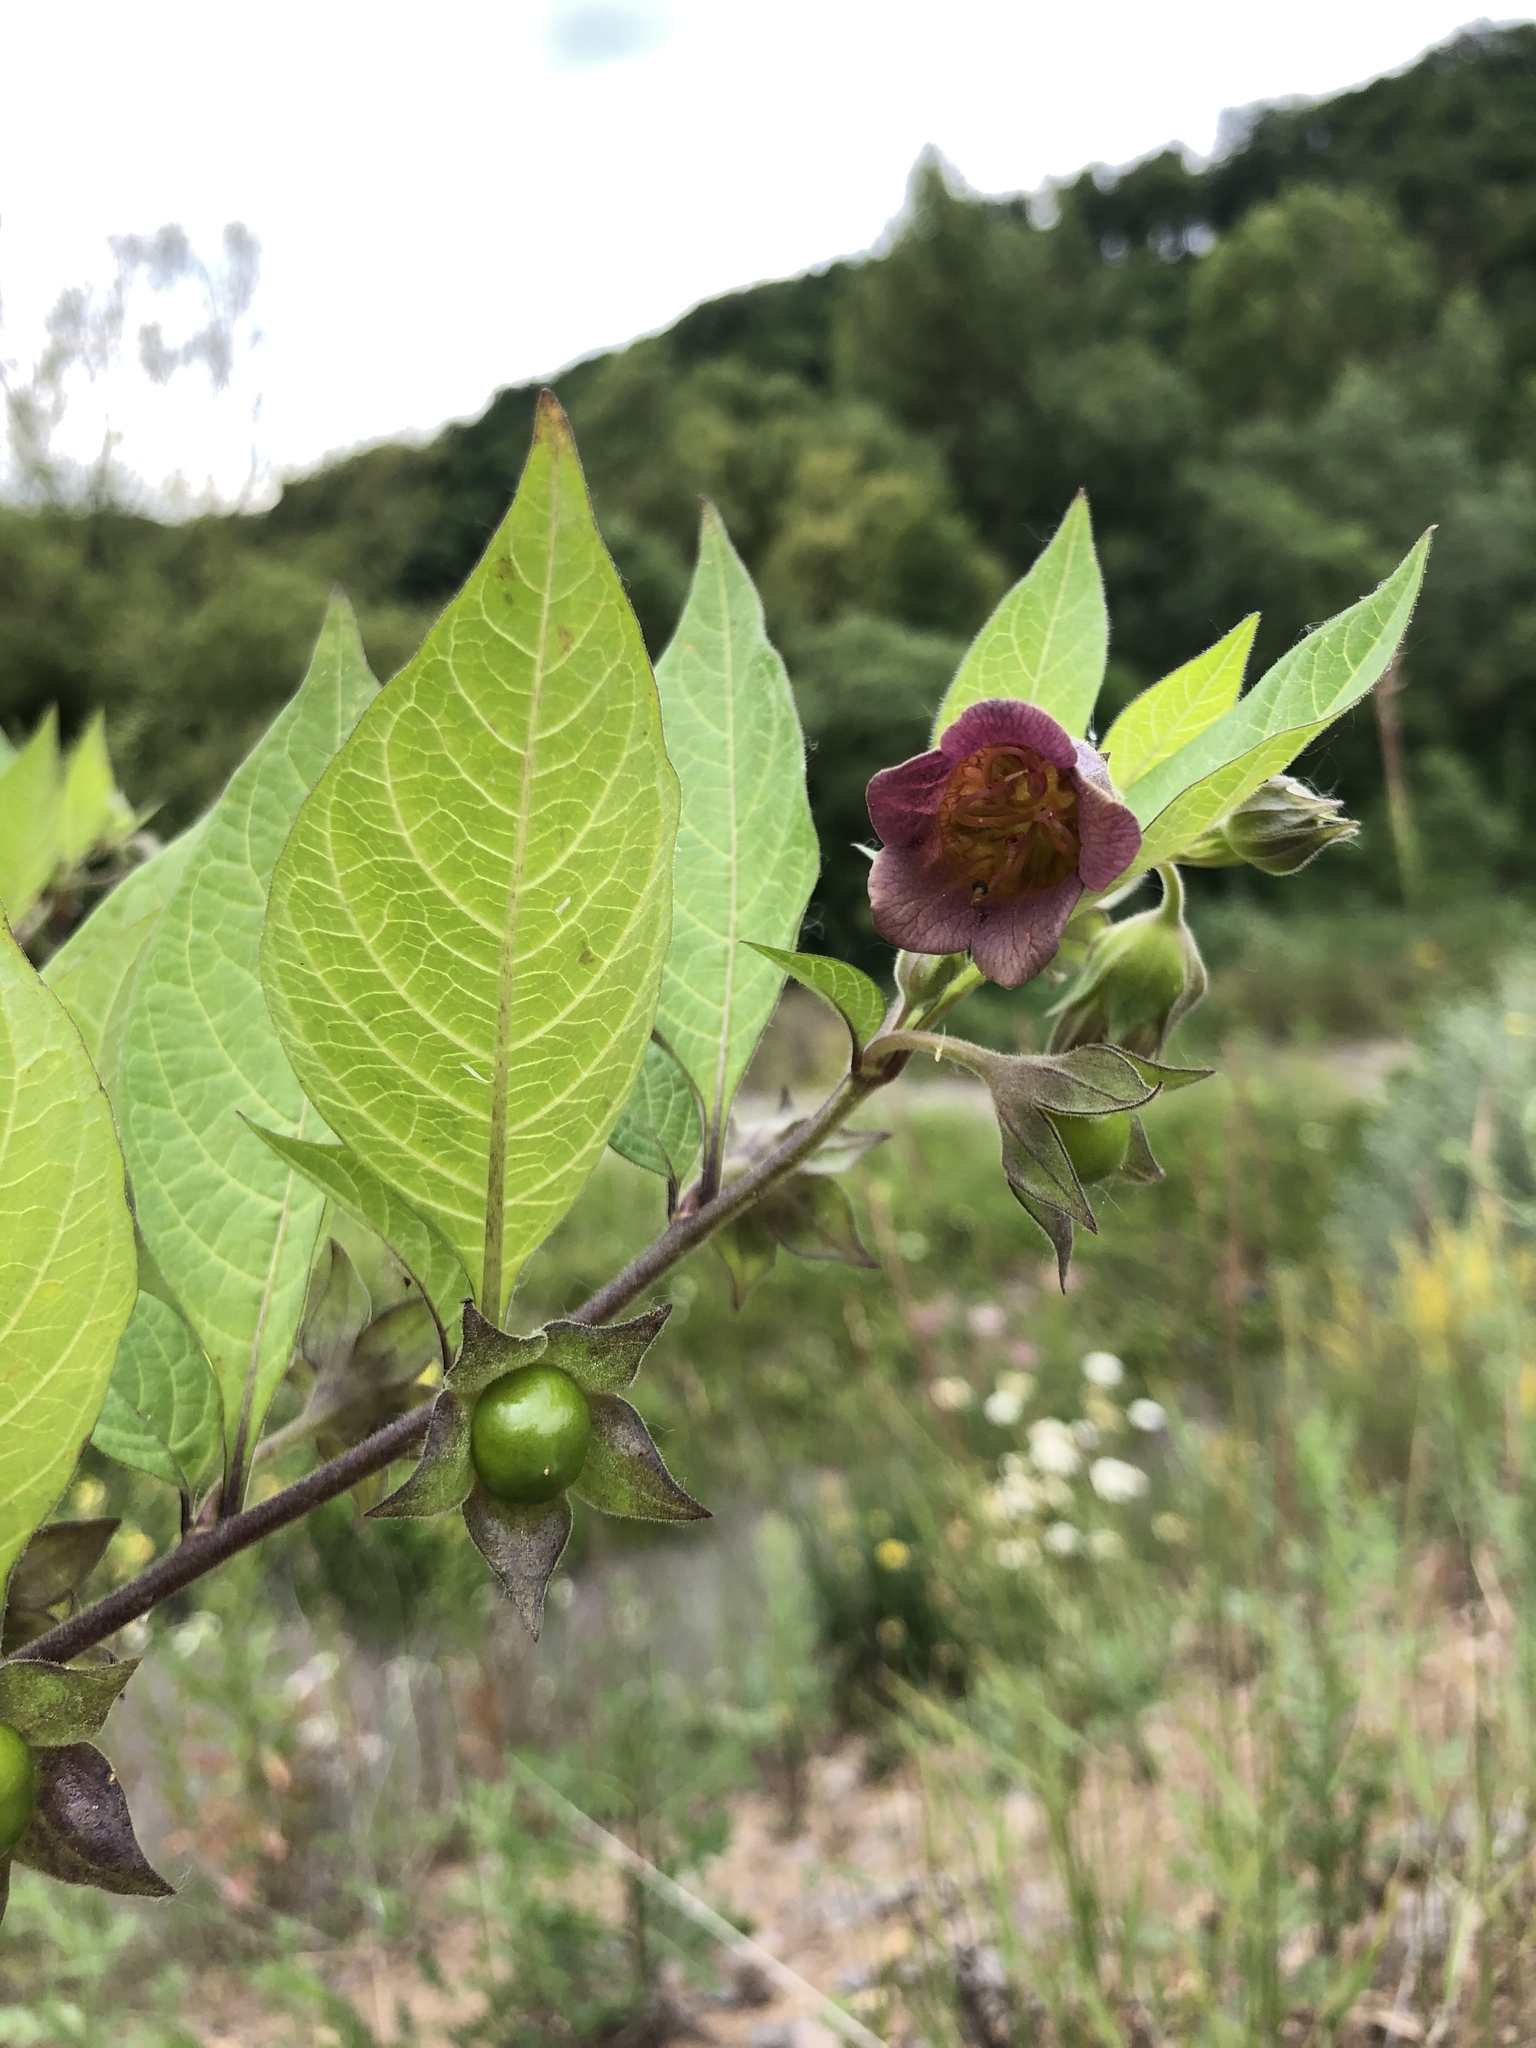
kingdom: Plantae
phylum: Tracheophyta
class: Magnoliopsida
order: Solanales
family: Solanaceae
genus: Atropa
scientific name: Atropa belladonna
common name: Deadly nightshade
